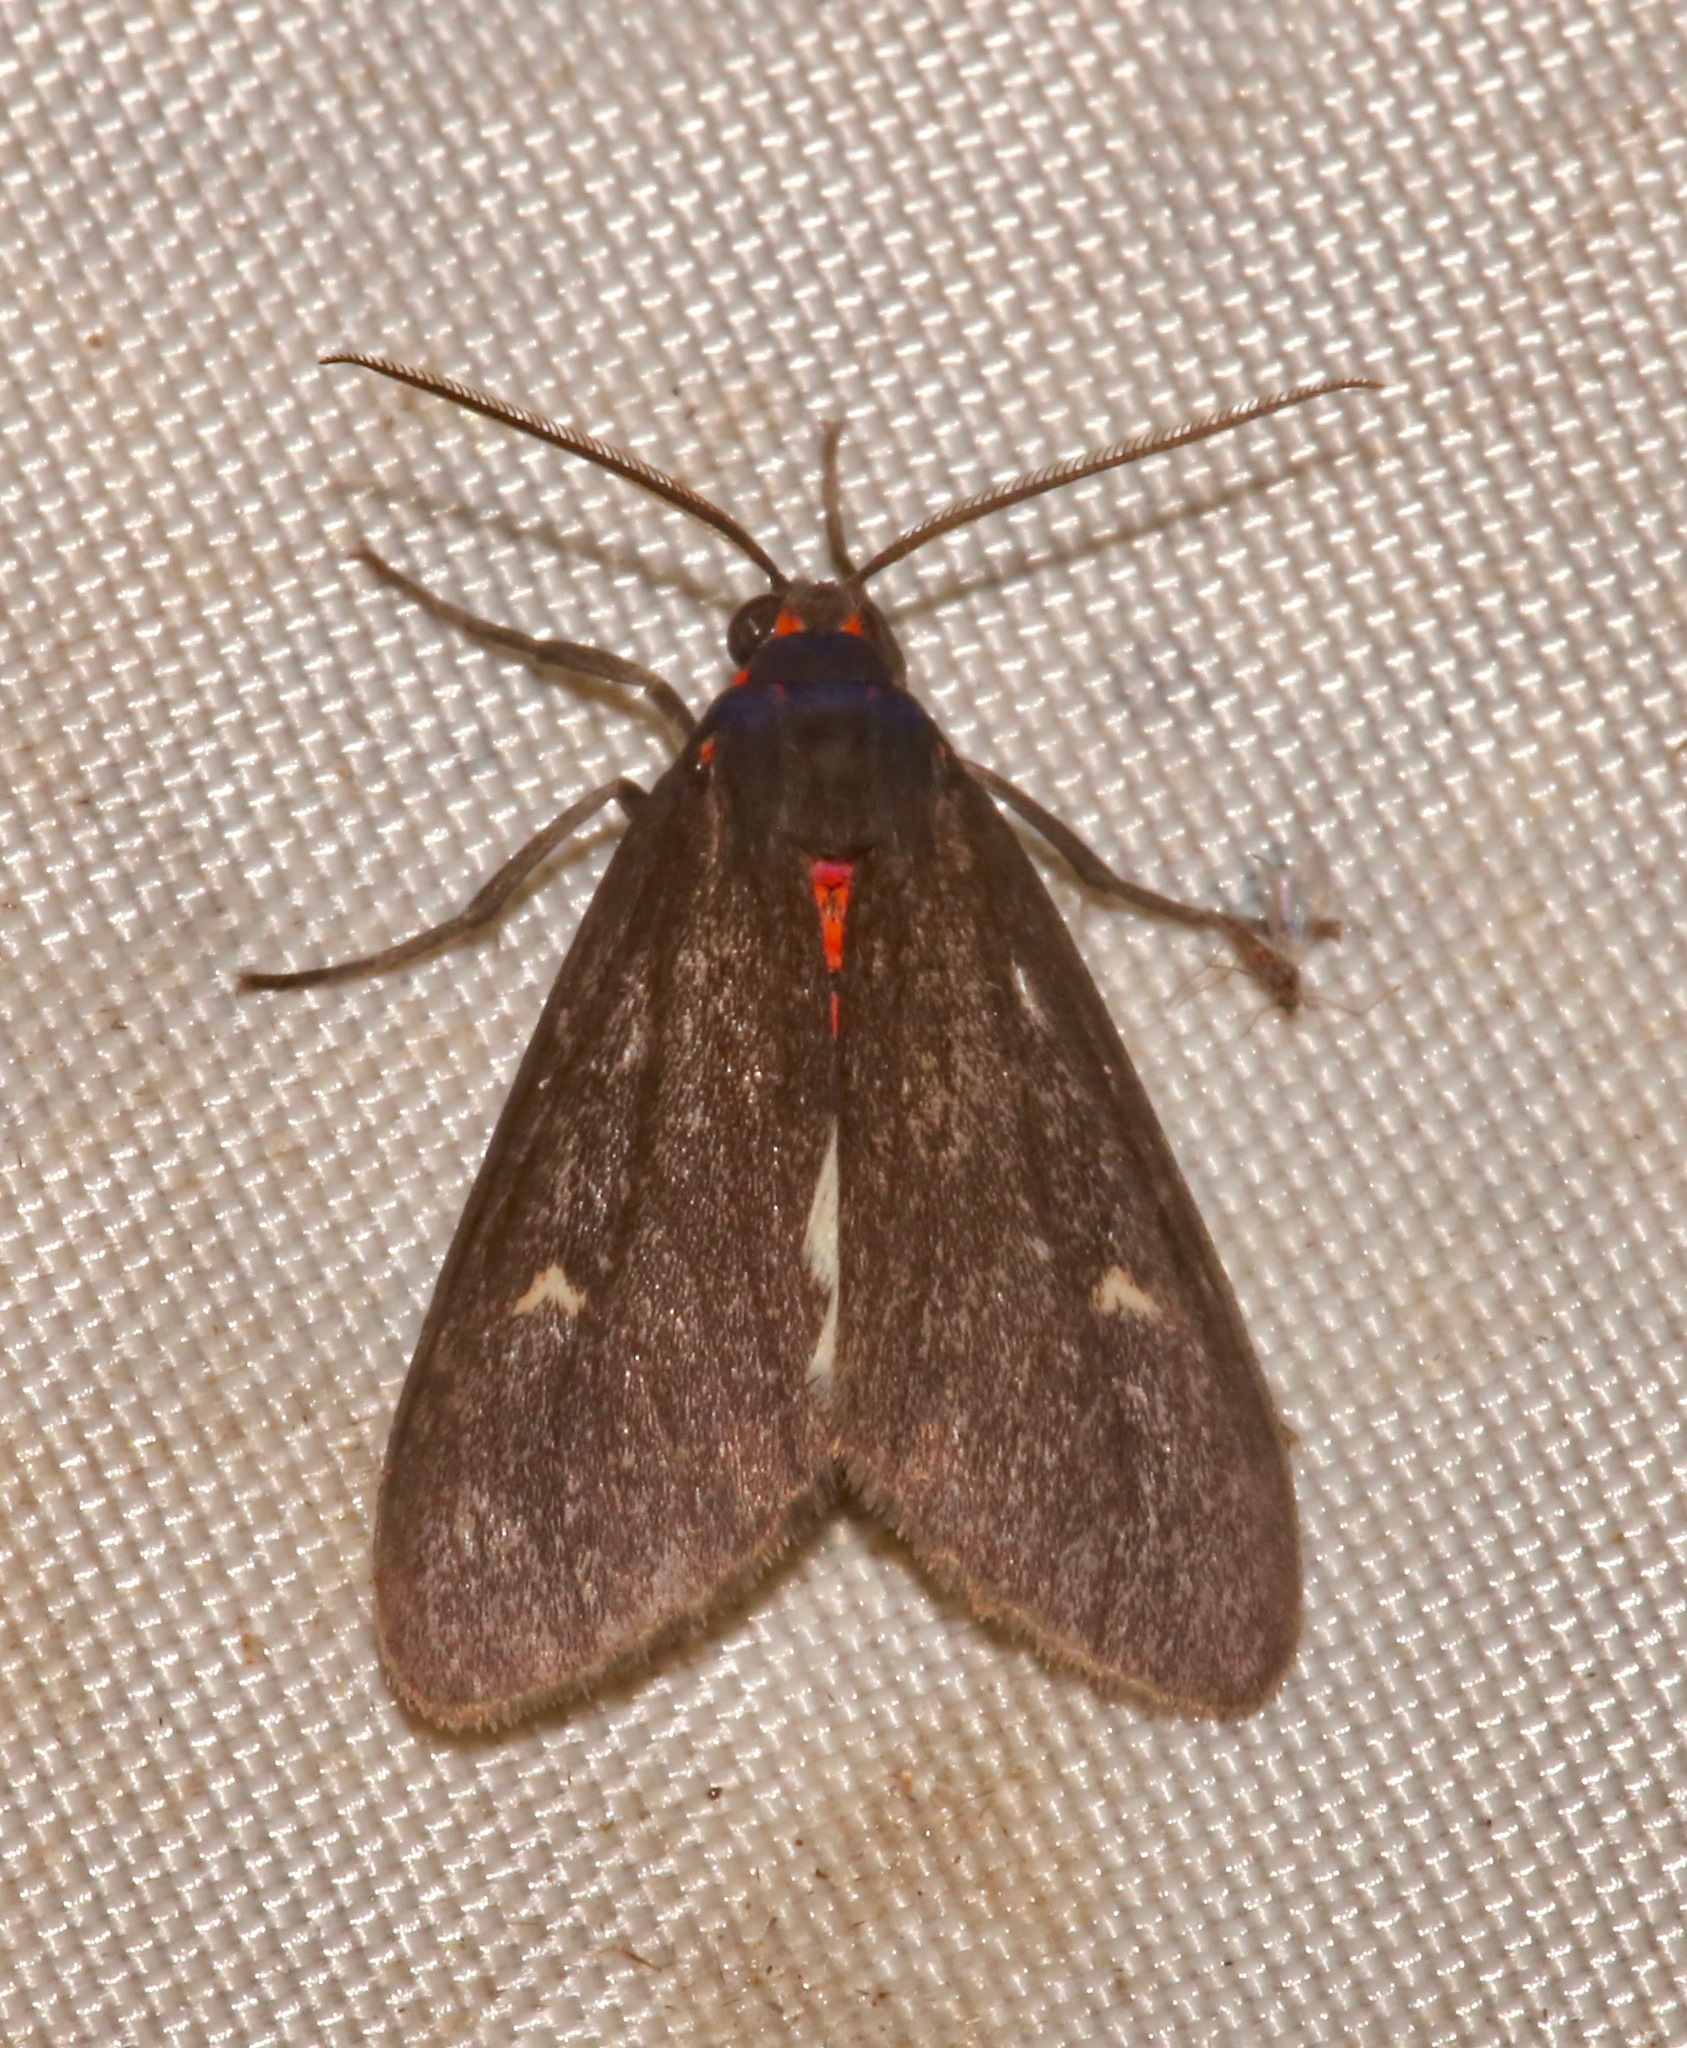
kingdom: Animalia
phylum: Arthropoda
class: Insecta
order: Lepidoptera
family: Erebidae
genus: Euchaetes
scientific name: Euchaetes zella
